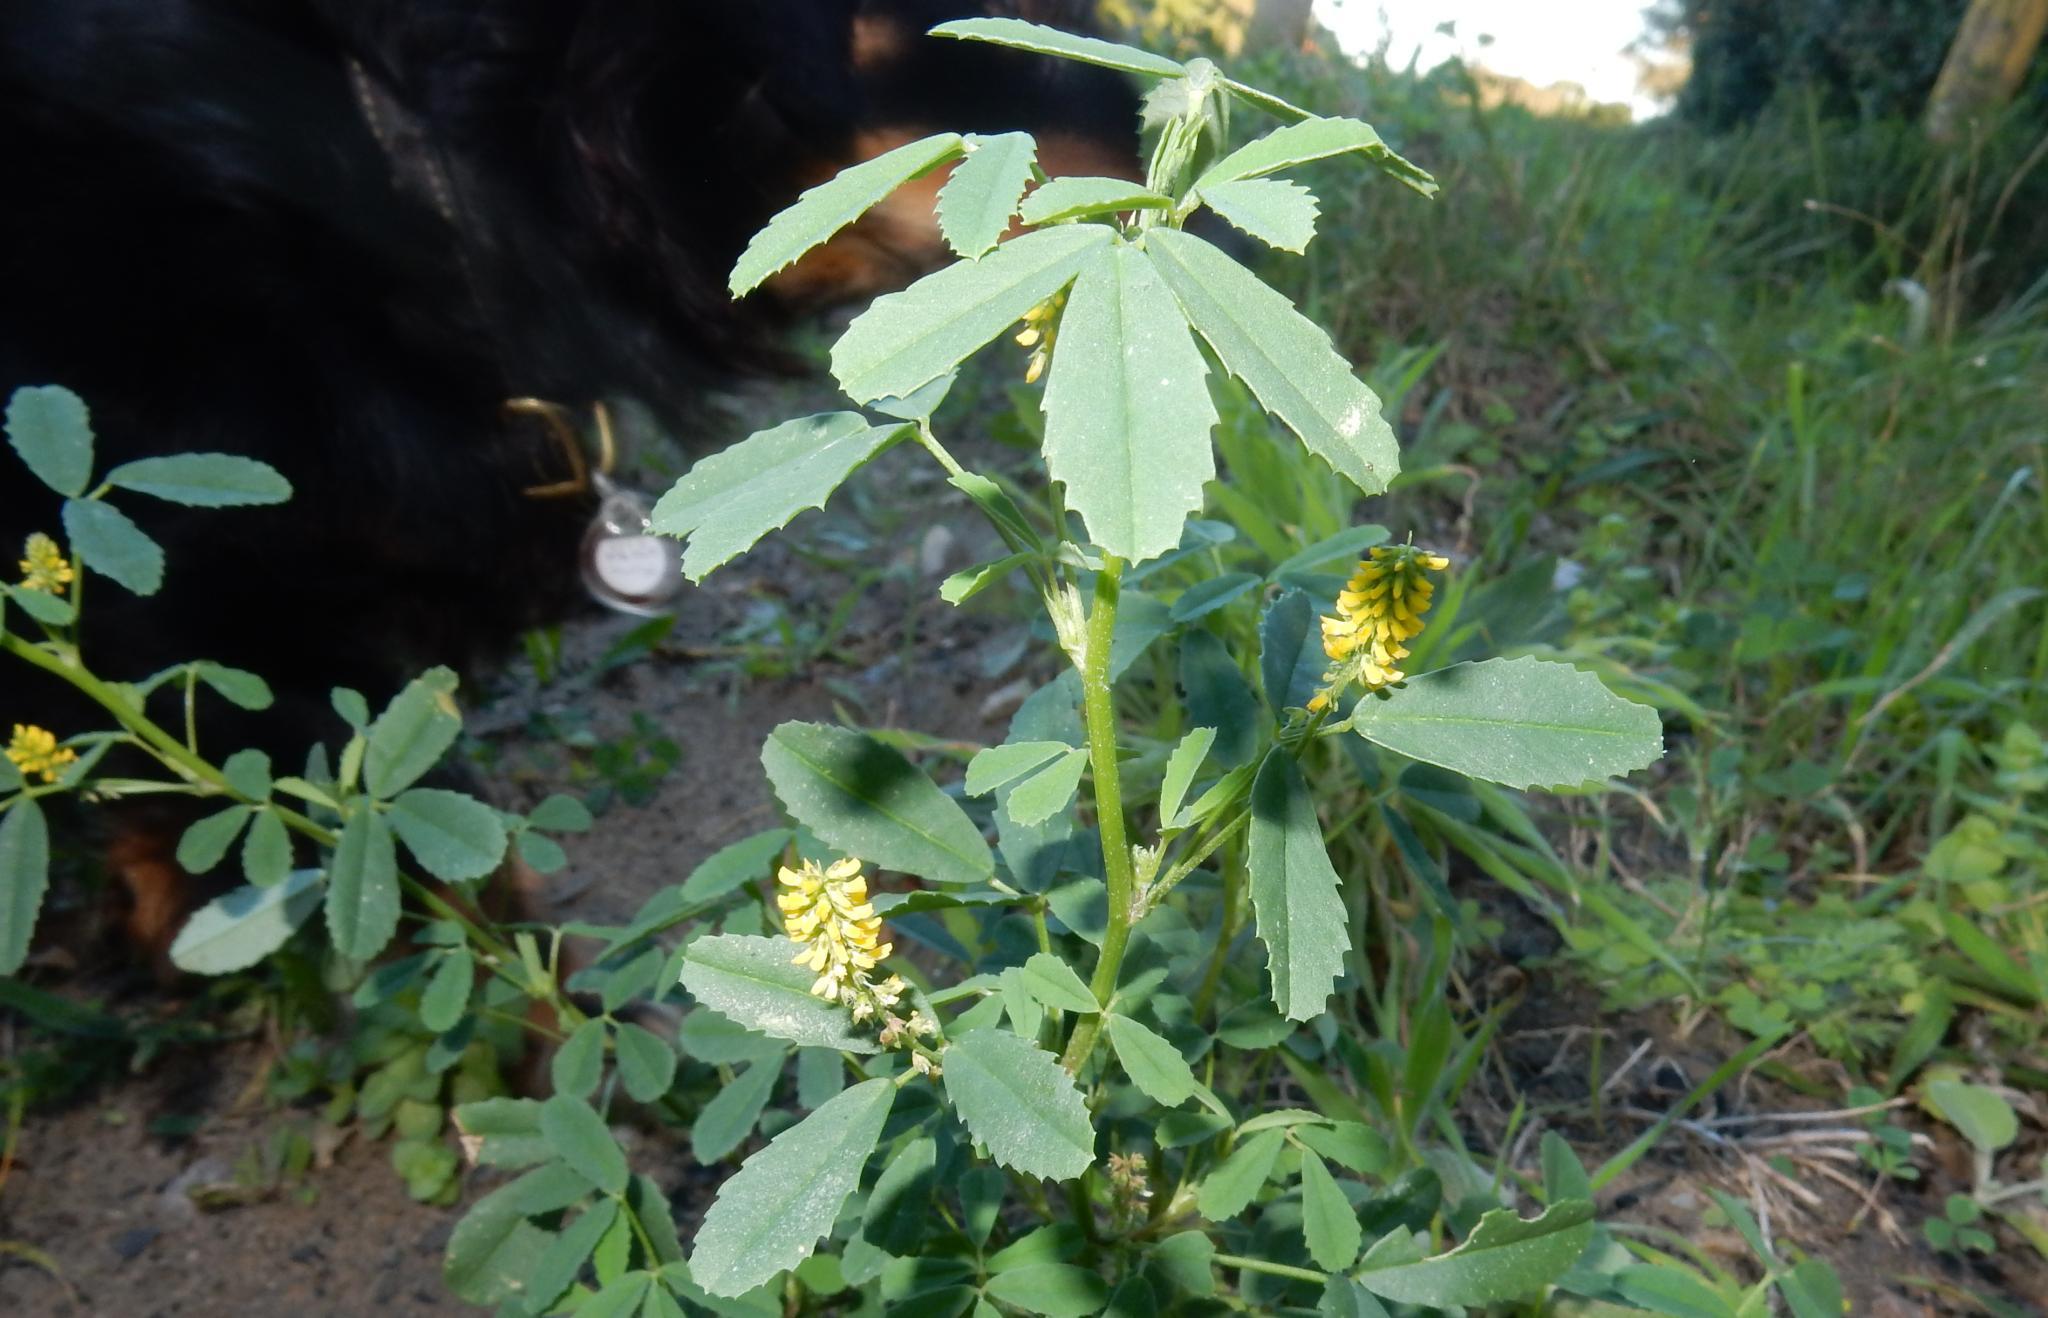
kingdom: Plantae
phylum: Tracheophyta
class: Magnoliopsida
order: Fabales
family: Fabaceae
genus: Melilotus
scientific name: Melilotus indicus
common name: Small melilot
